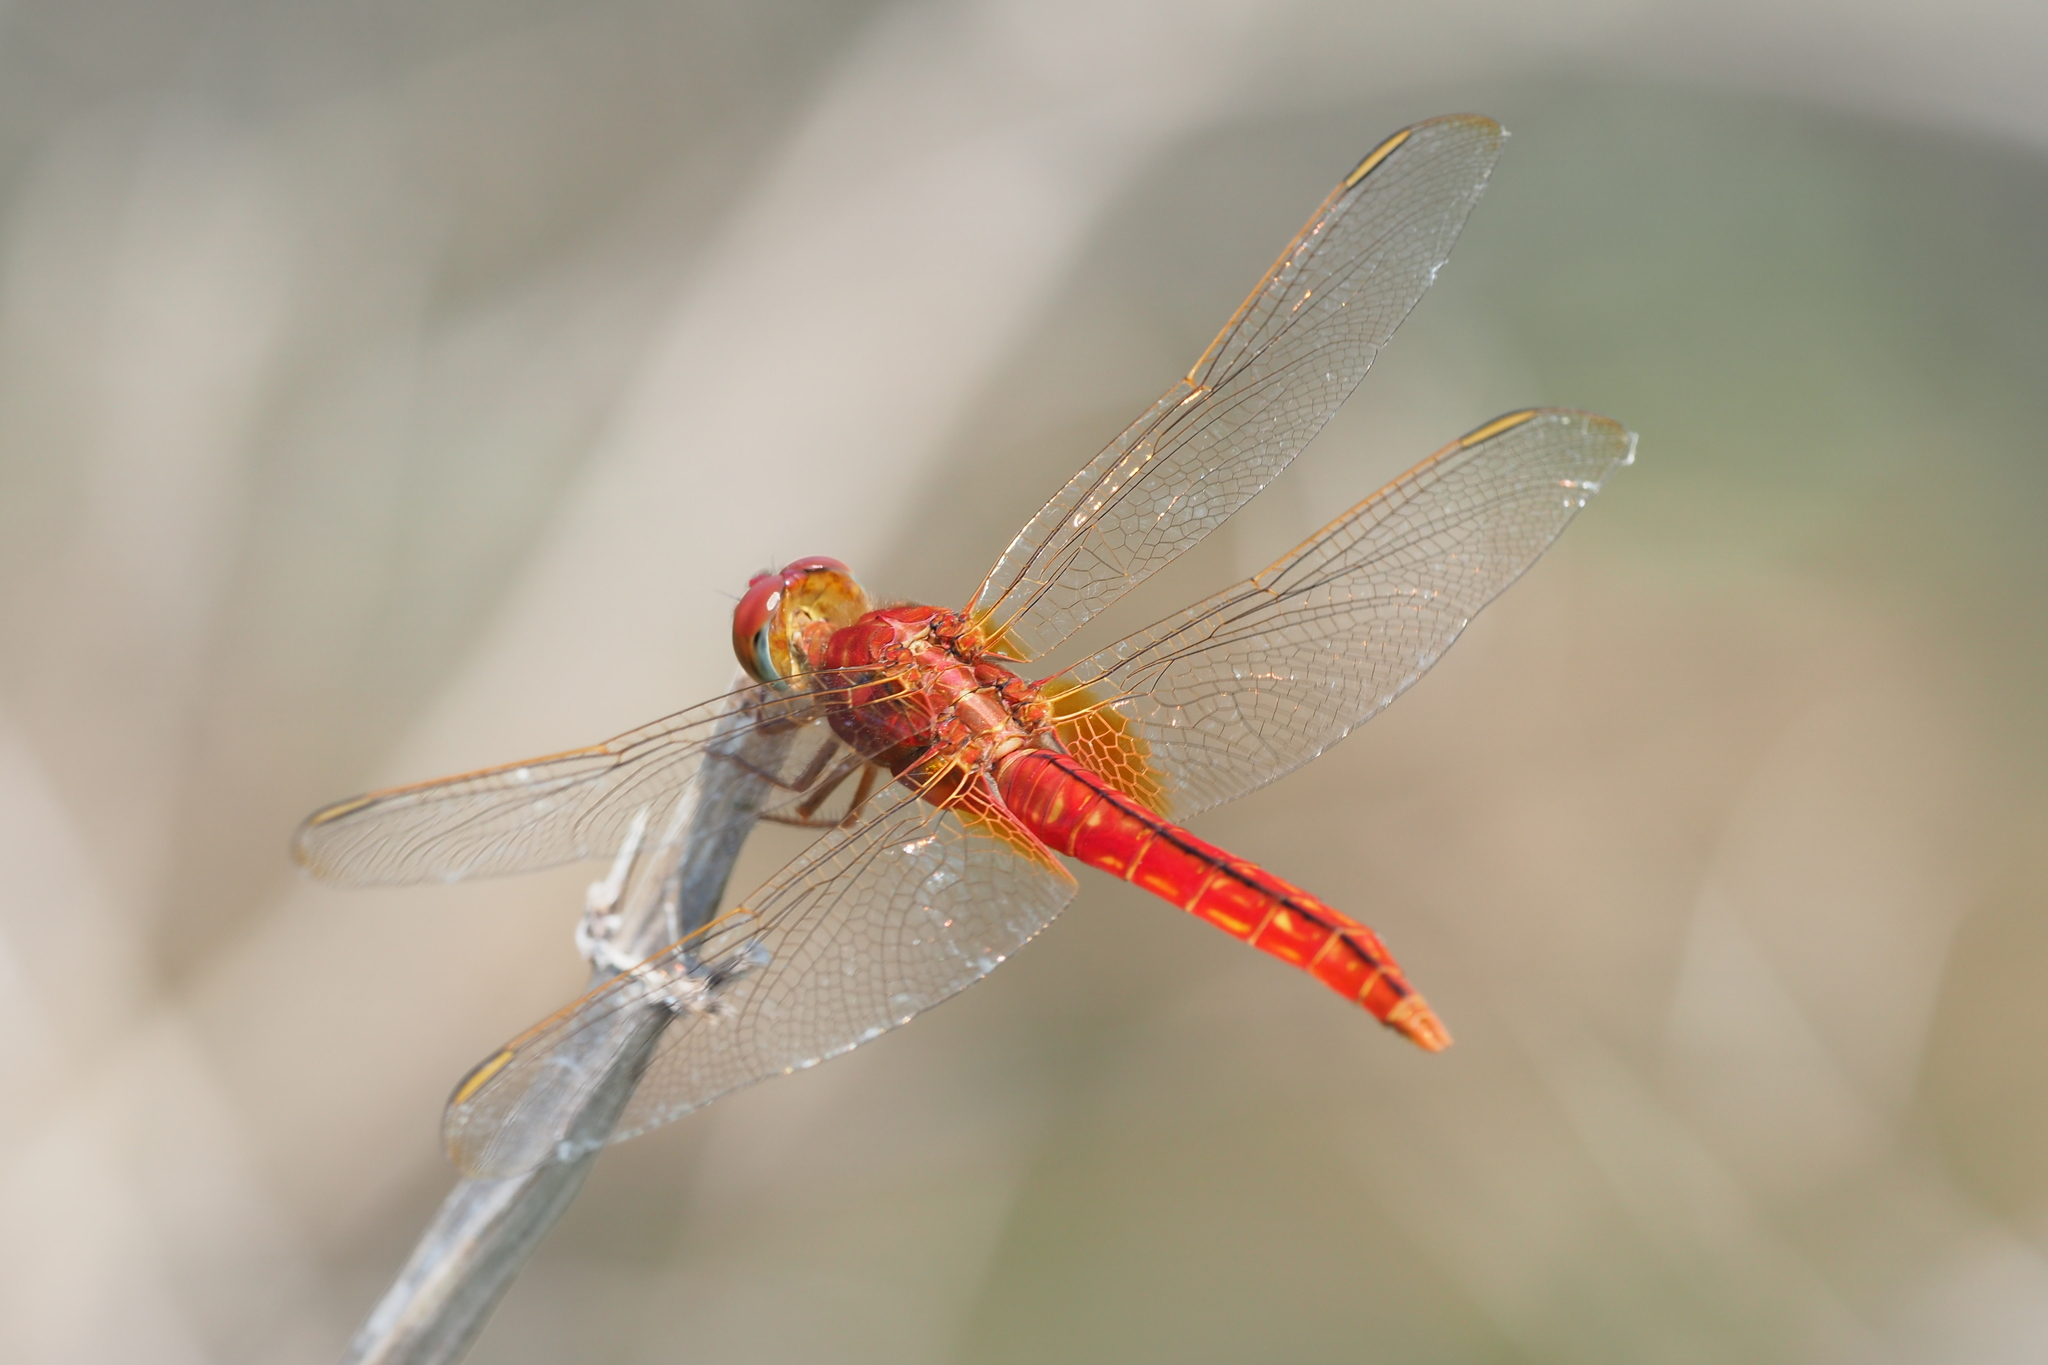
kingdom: Animalia
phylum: Arthropoda
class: Insecta
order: Odonata
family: Libellulidae
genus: Crocothemis
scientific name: Crocothemis servilia
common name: Scarlet skimmer
